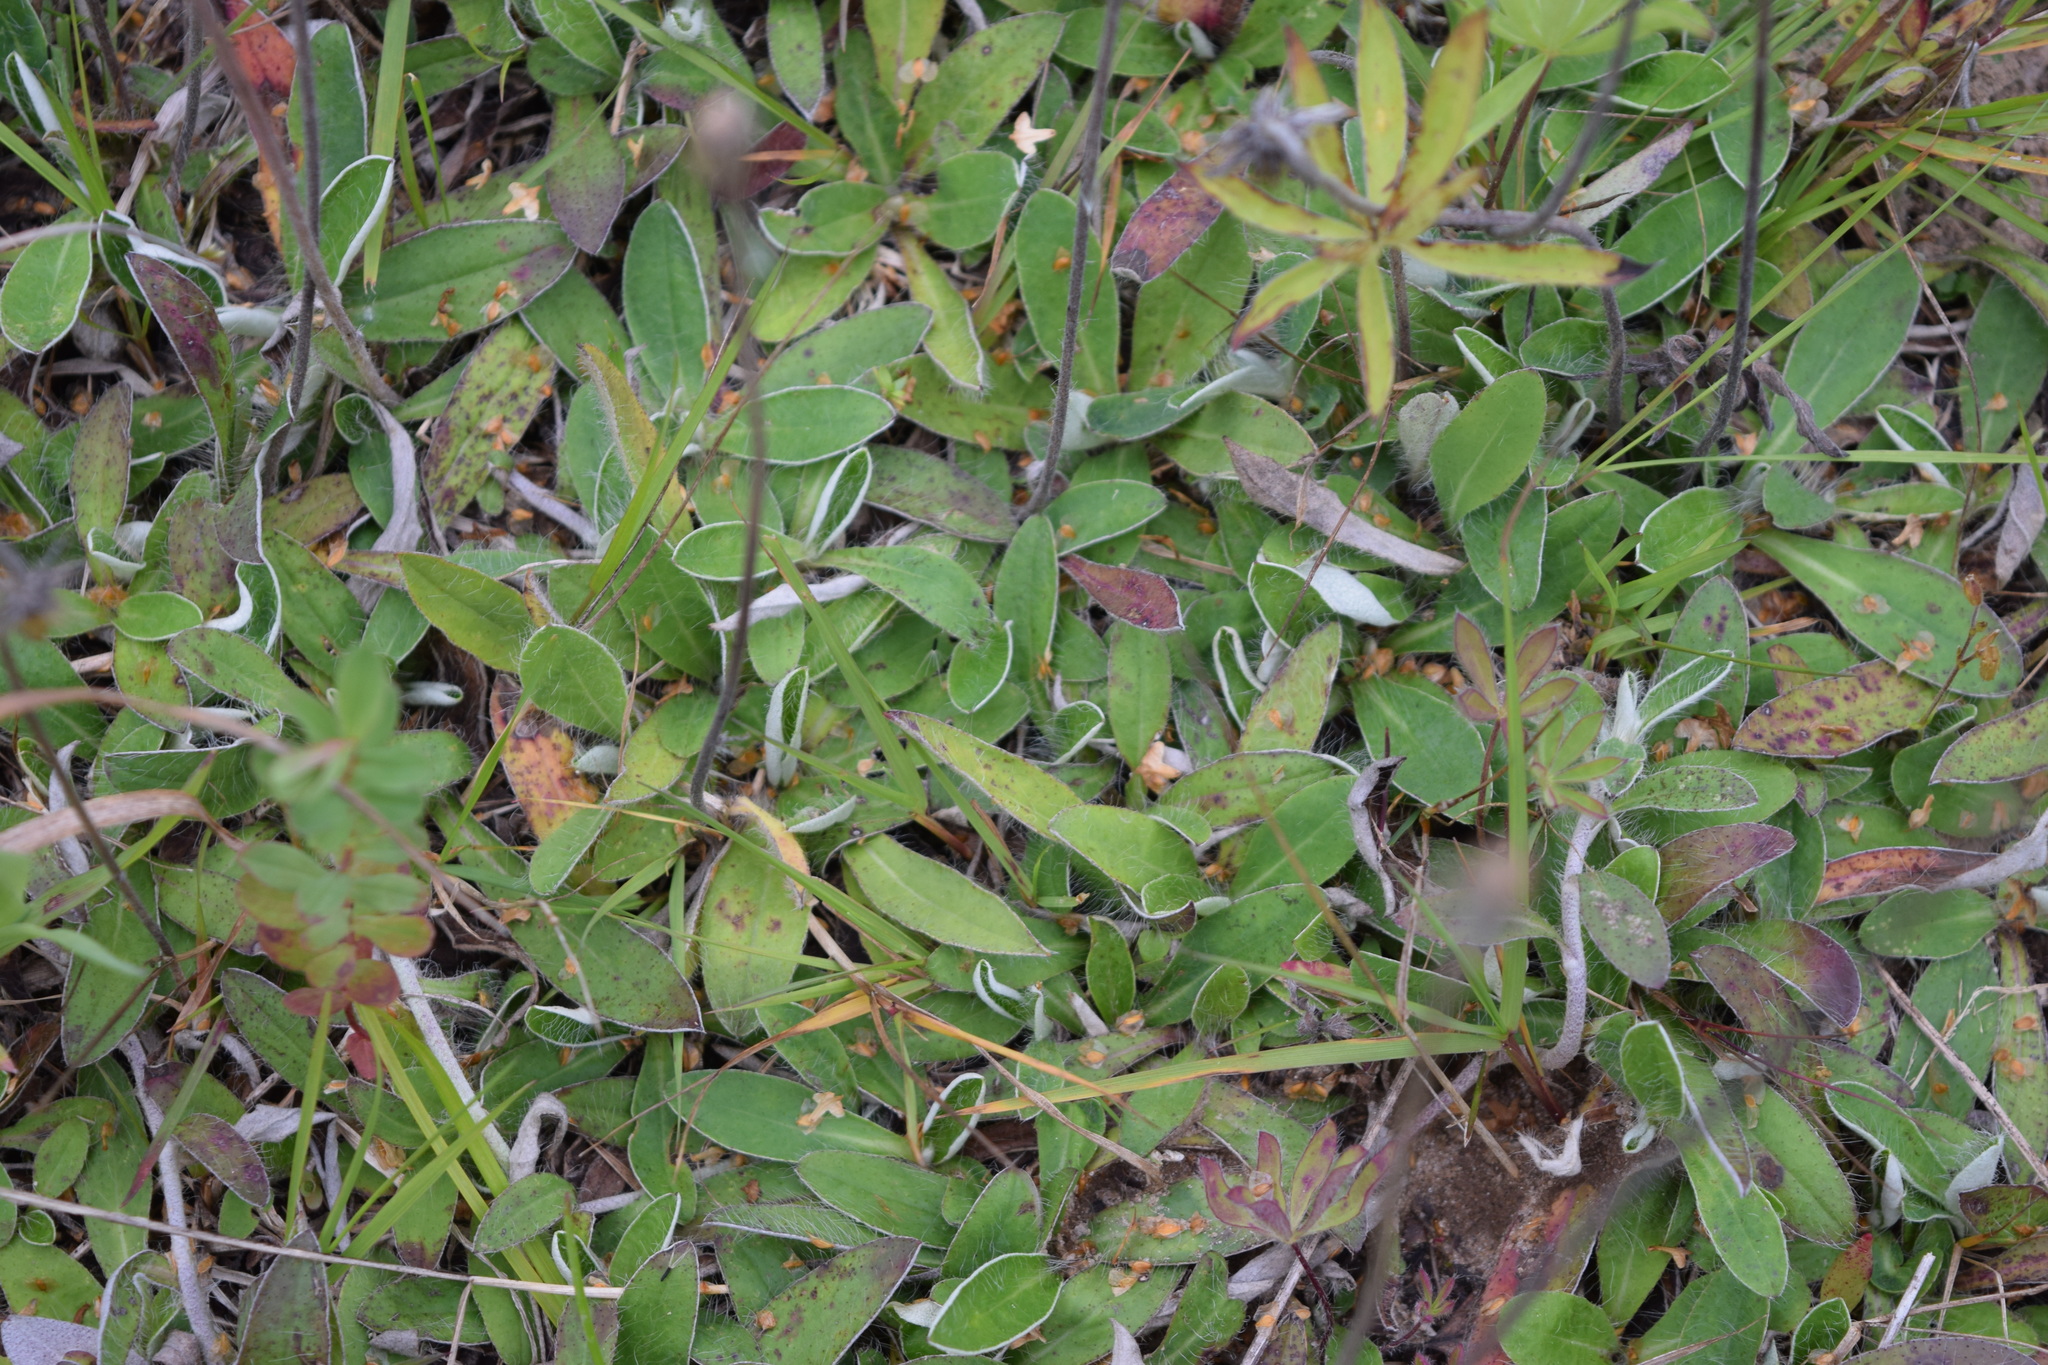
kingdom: Plantae
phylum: Tracheophyta
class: Magnoliopsida
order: Asterales
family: Asteraceae
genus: Pilosella
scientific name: Pilosella officinarum
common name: Mouse-ear hawkweed
